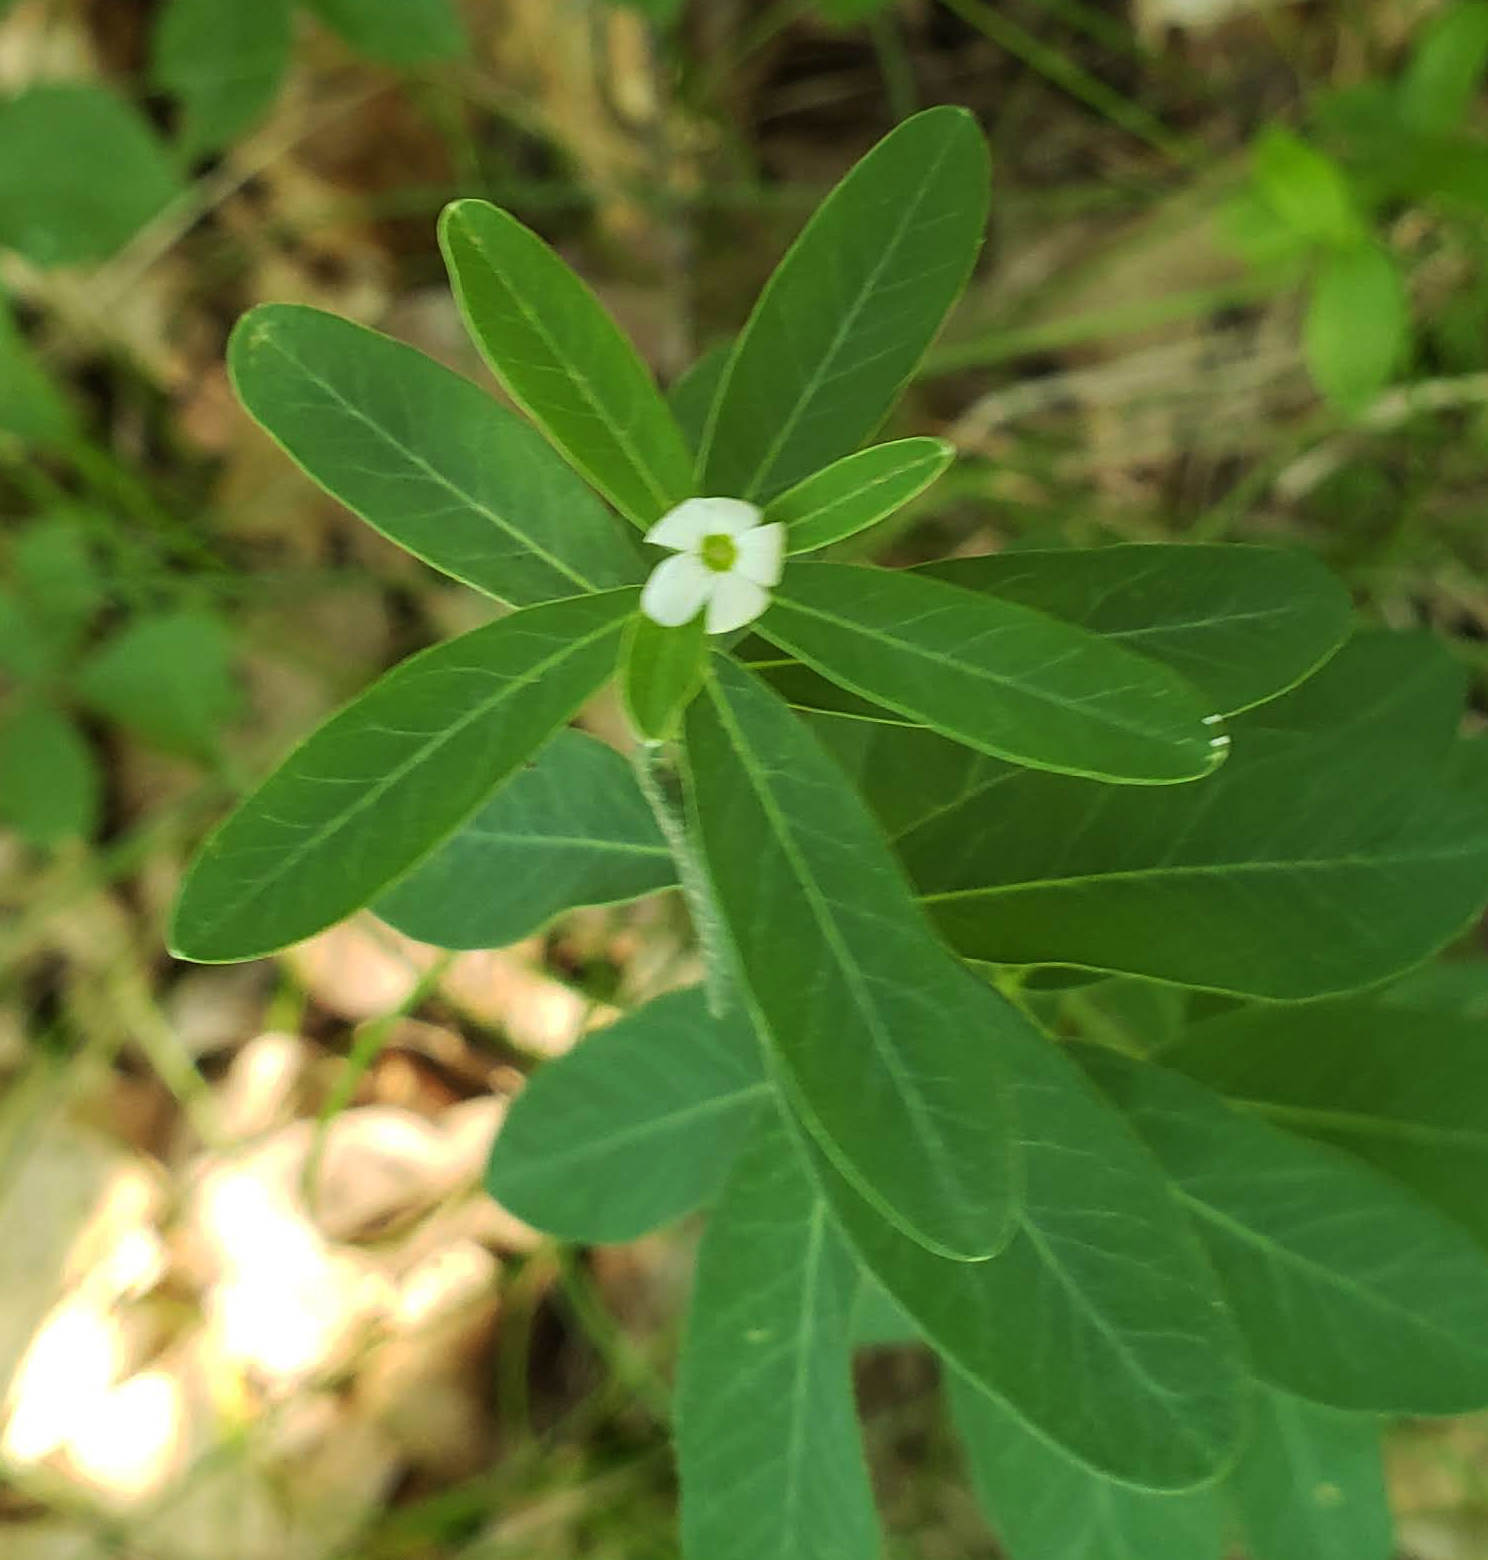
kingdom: Plantae
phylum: Tracheophyta
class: Magnoliopsida
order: Malpighiales
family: Euphorbiaceae
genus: Euphorbia
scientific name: Euphorbia corollata
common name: Flowering spurge
